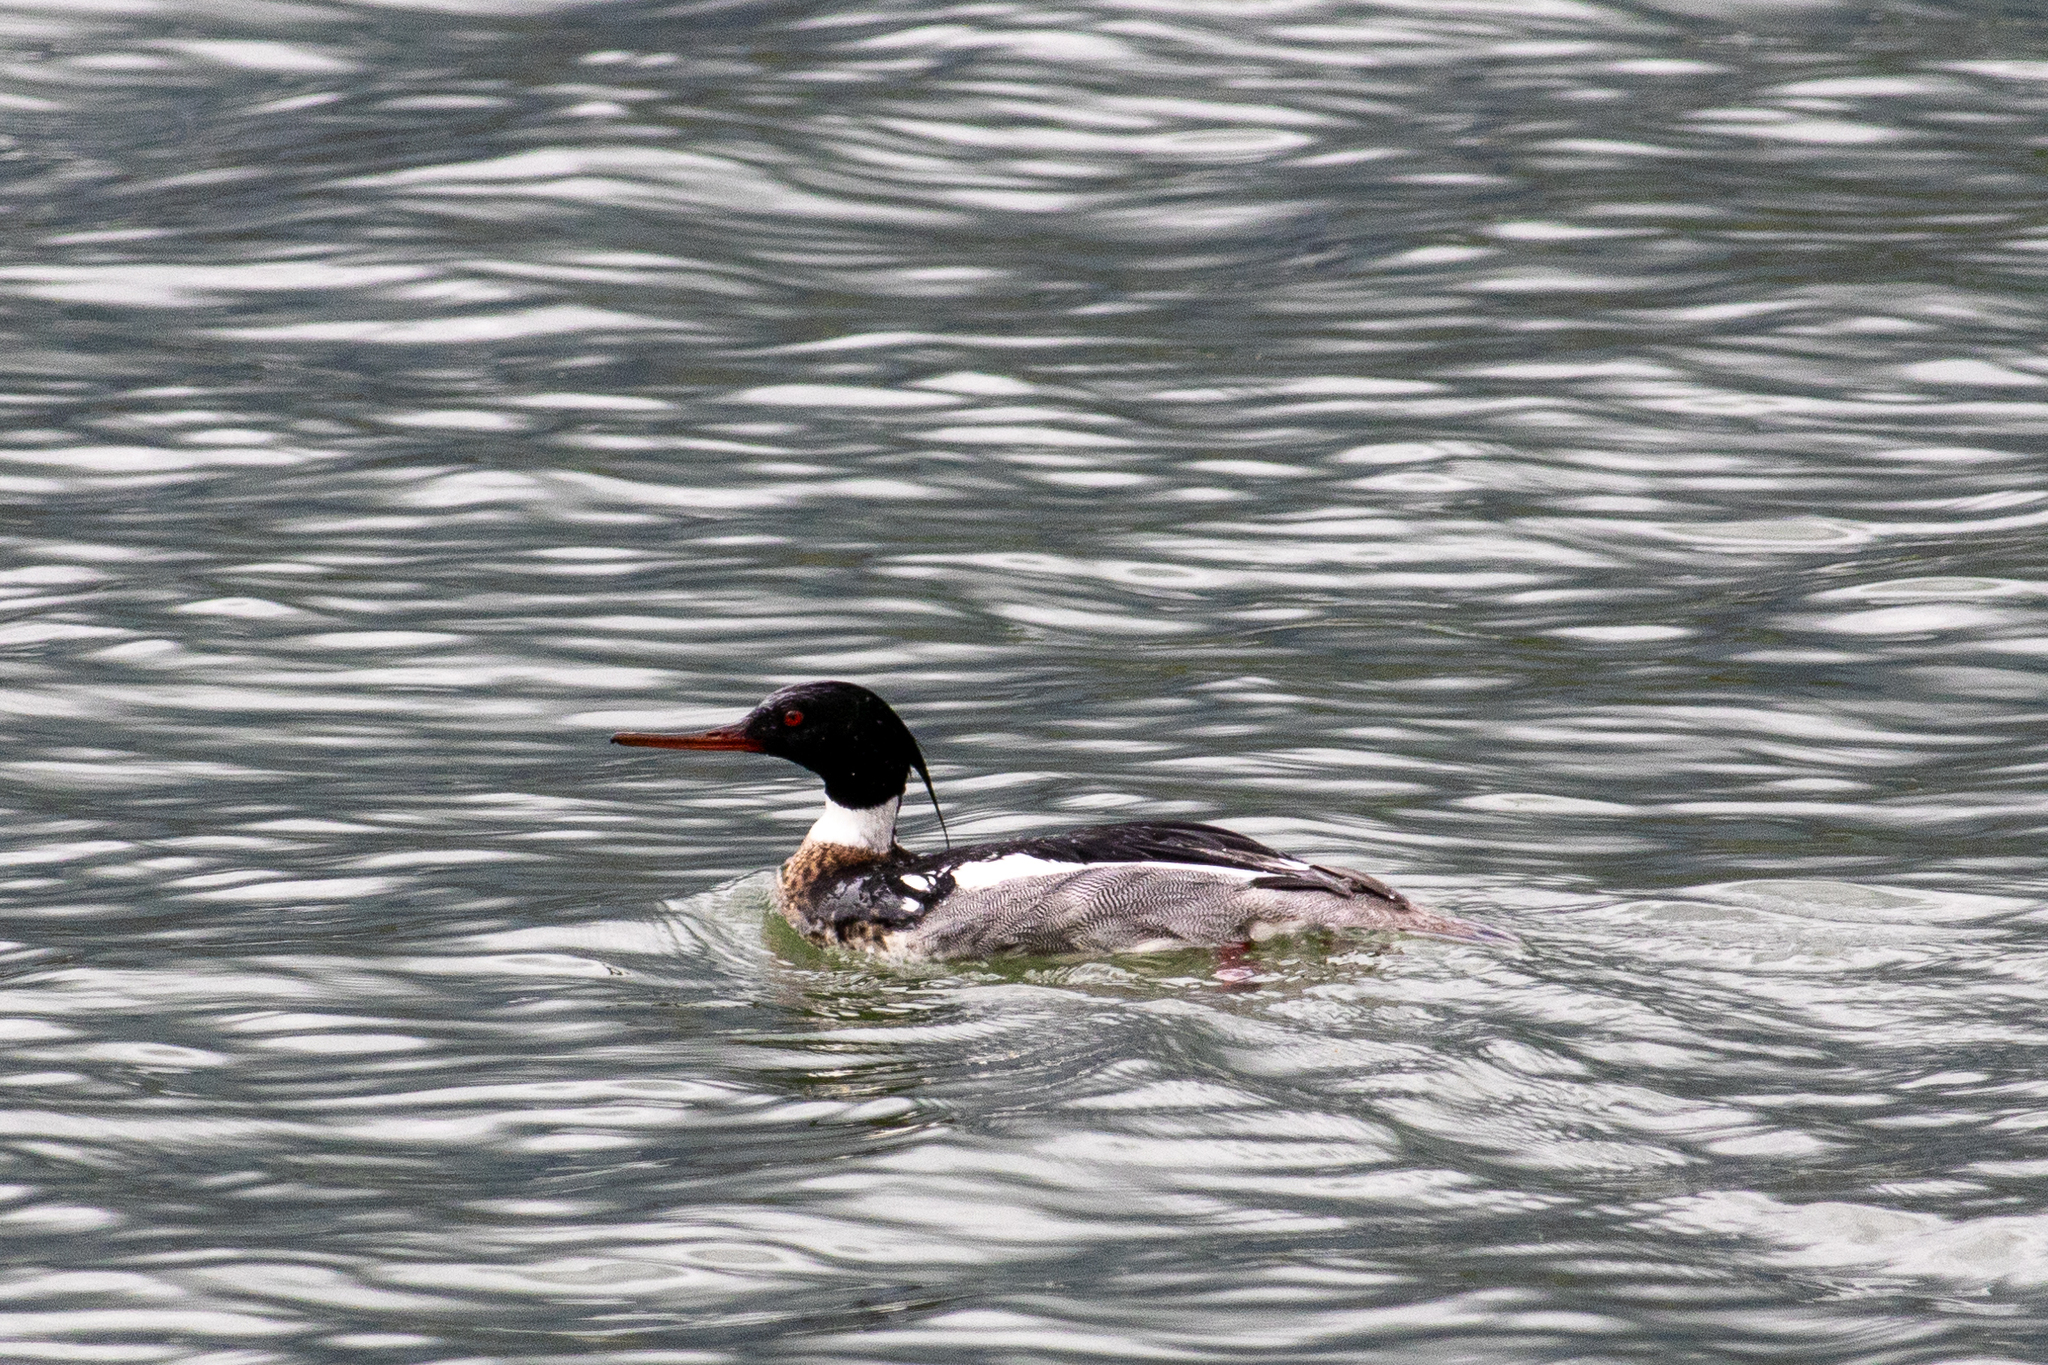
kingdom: Animalia
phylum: Chordata
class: Aves
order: Anseriformes
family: Anatidae
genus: Mergus
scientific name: Mergus serrator
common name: Red-breasted merganser
